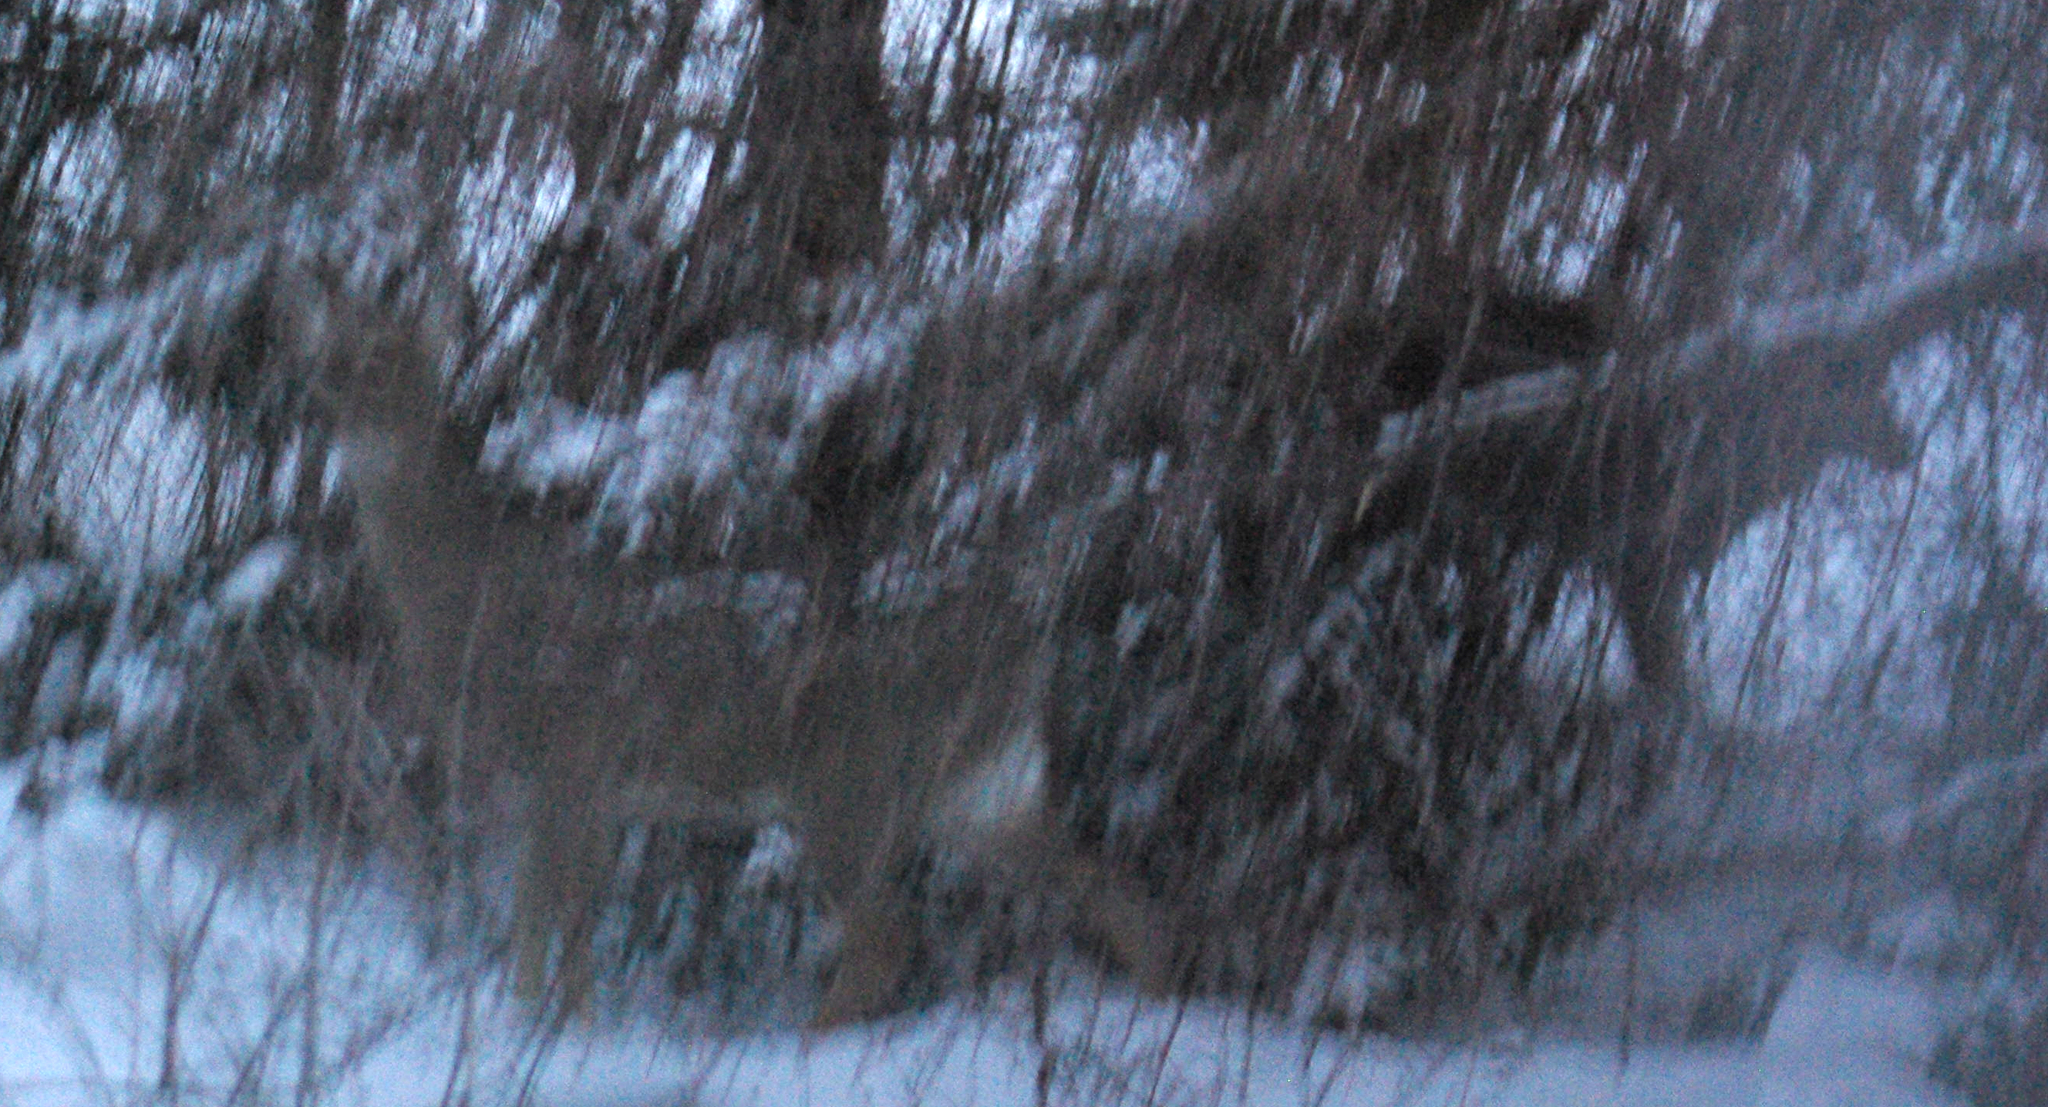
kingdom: Animalia
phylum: Chordata
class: Mammalia
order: Artiodactyla
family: Cervidae
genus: Odocoileus
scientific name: Odocoileus virginianus
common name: White-tailed deer
